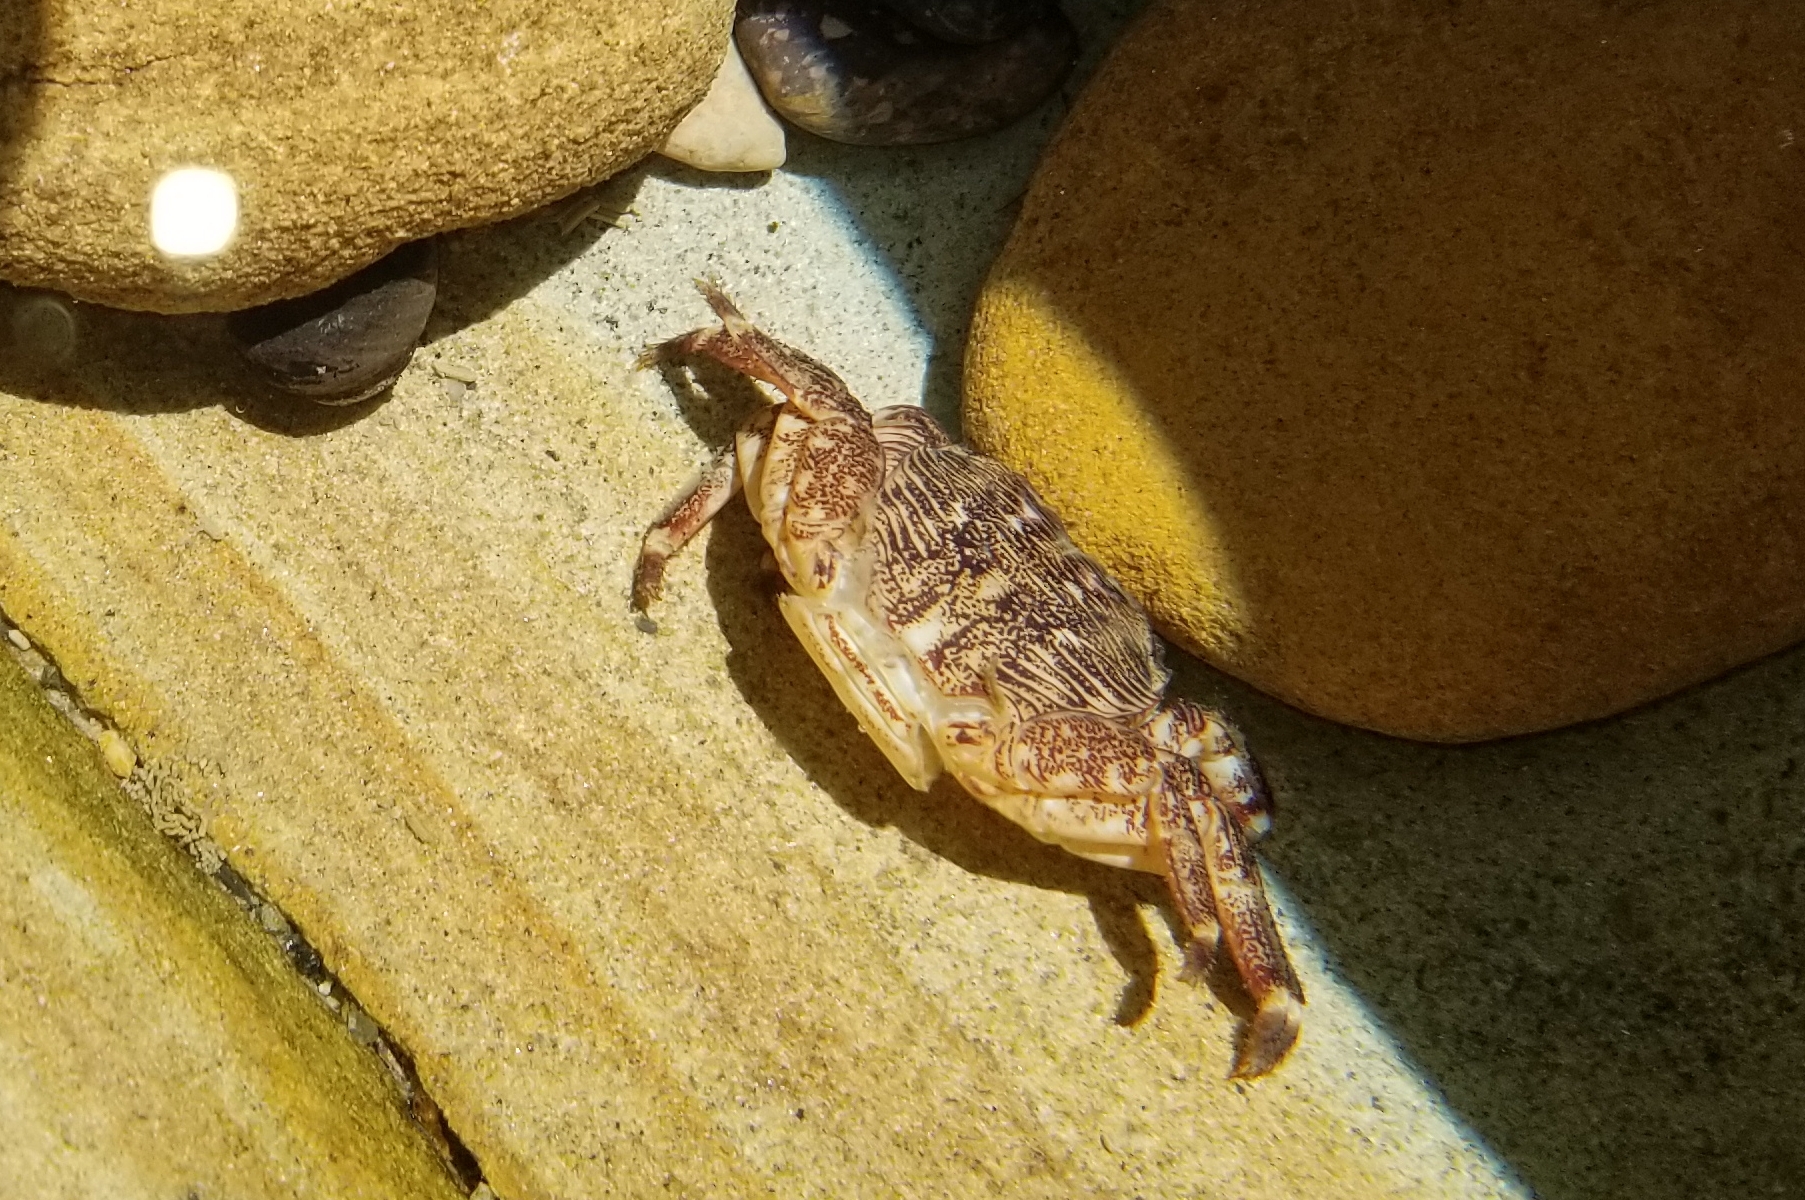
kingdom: Animalia
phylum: Arthropoda
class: Malacostraca
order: Decapoda
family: Grapsidae
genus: Pachygrapsus
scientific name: Pachygrapsus crassipes
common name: Striped shore crab
